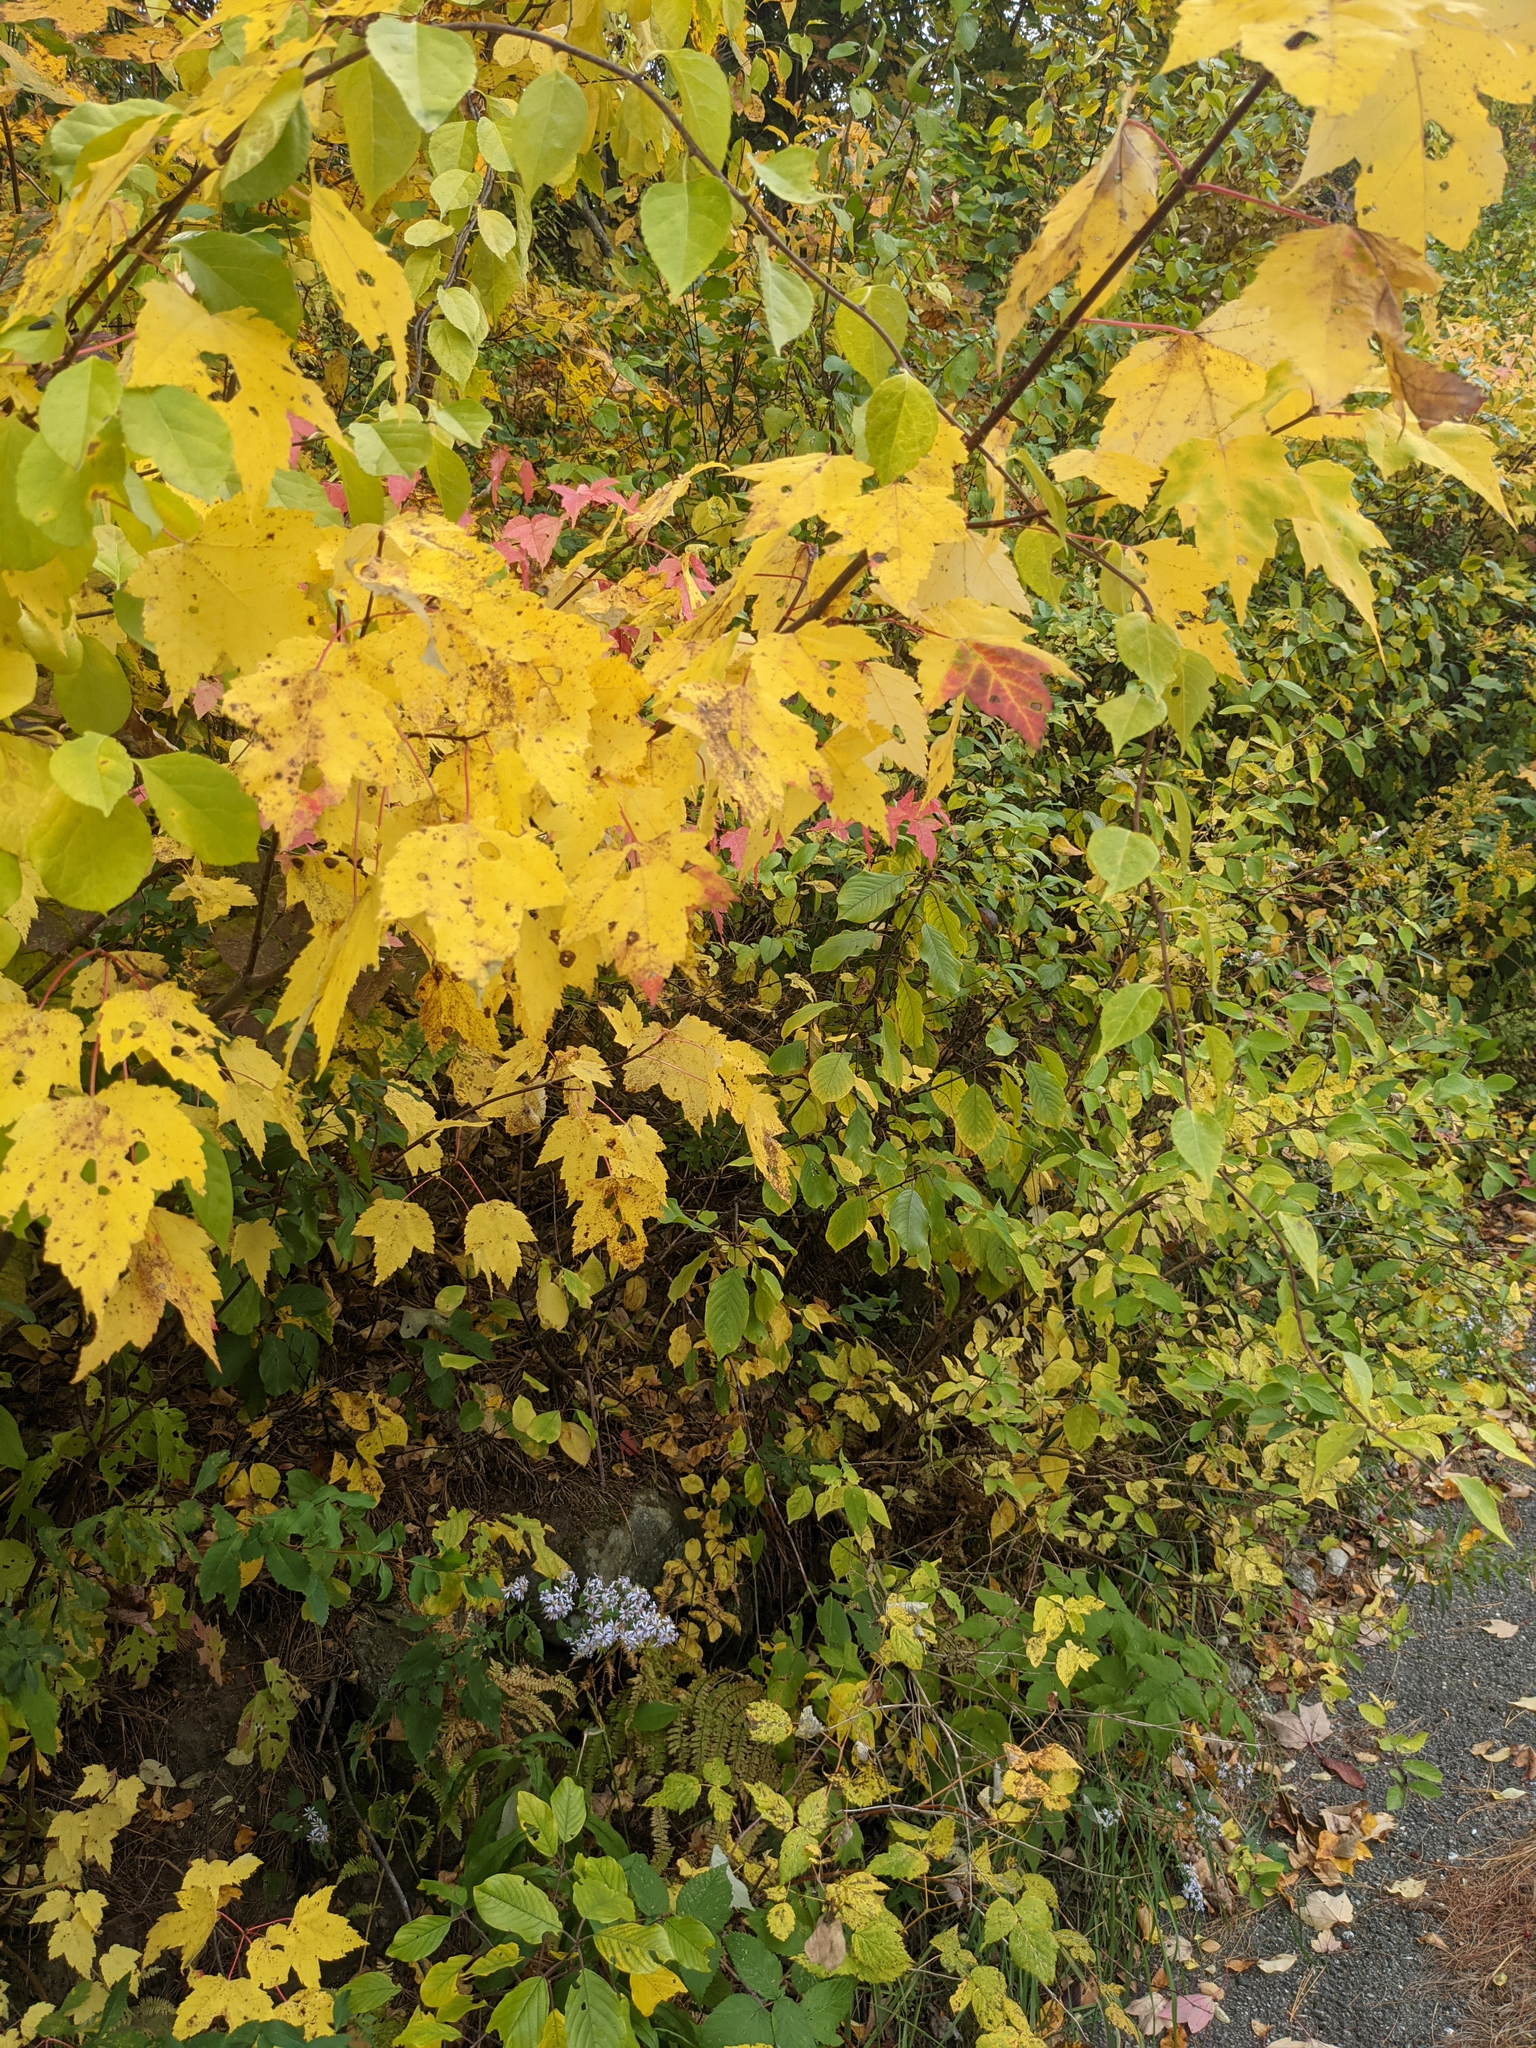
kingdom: Plantae
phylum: Tracheophyta
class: Magnoliopsida
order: Sapindales
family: Sapindaceae
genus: Acer
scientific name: Acer rubrum
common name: Red maple
